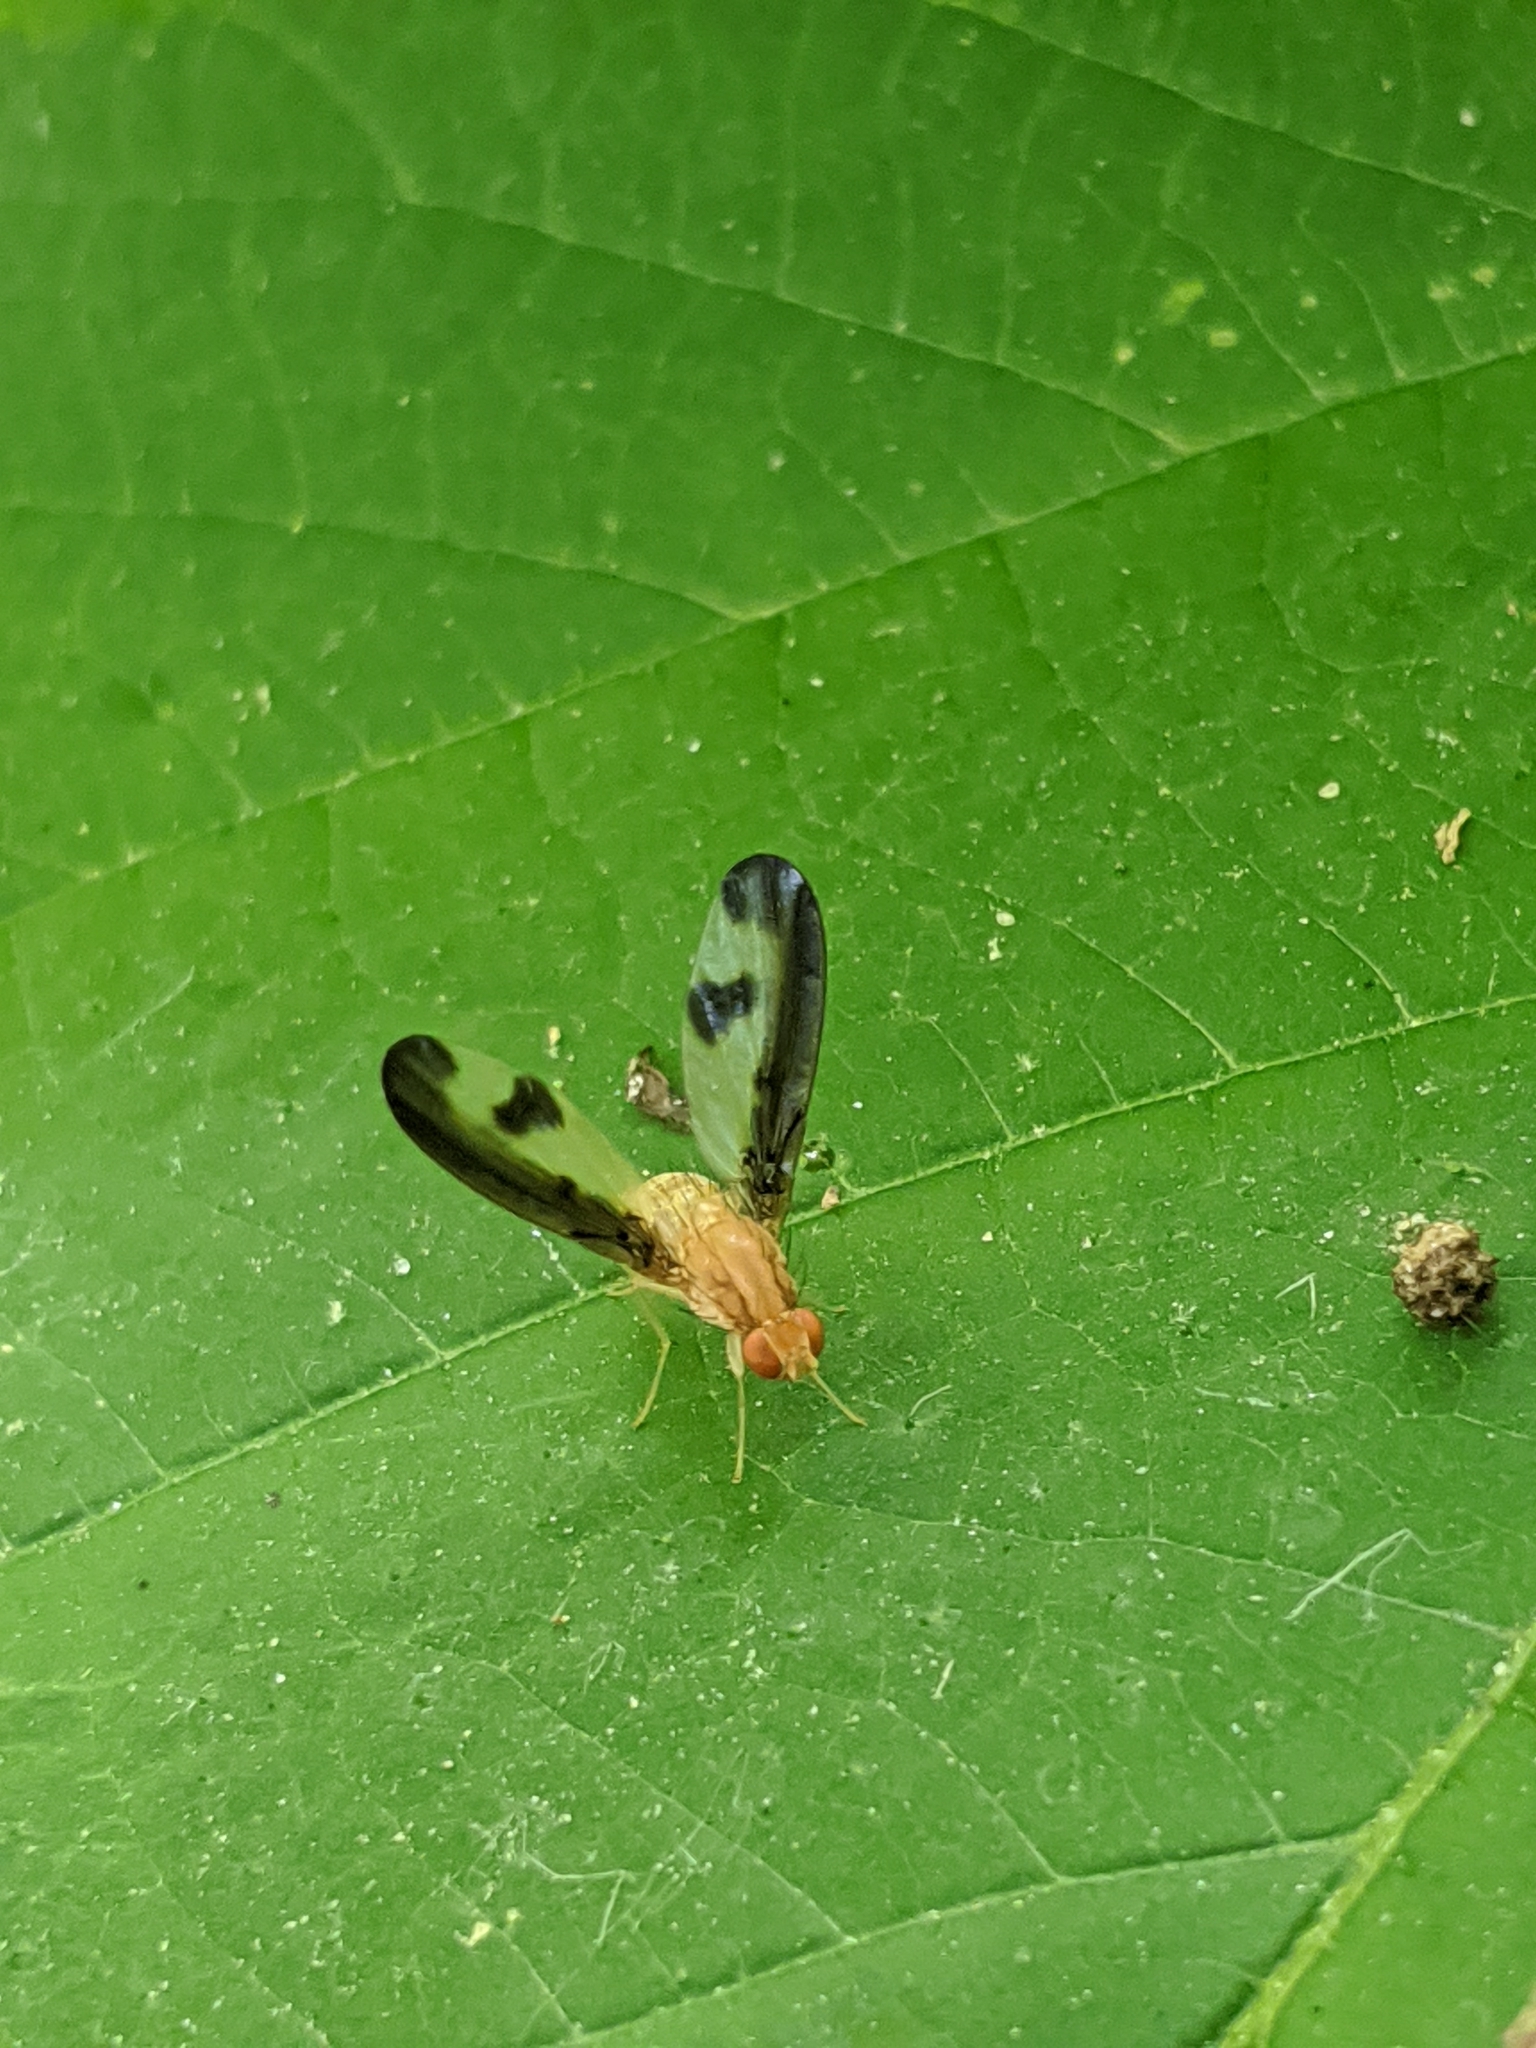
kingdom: Animalia
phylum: Arthropoda
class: Insecta
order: Diptera
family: Pallopteridae
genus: Toxonevra
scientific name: Toxonevra superba
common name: Antlered flutter fly
